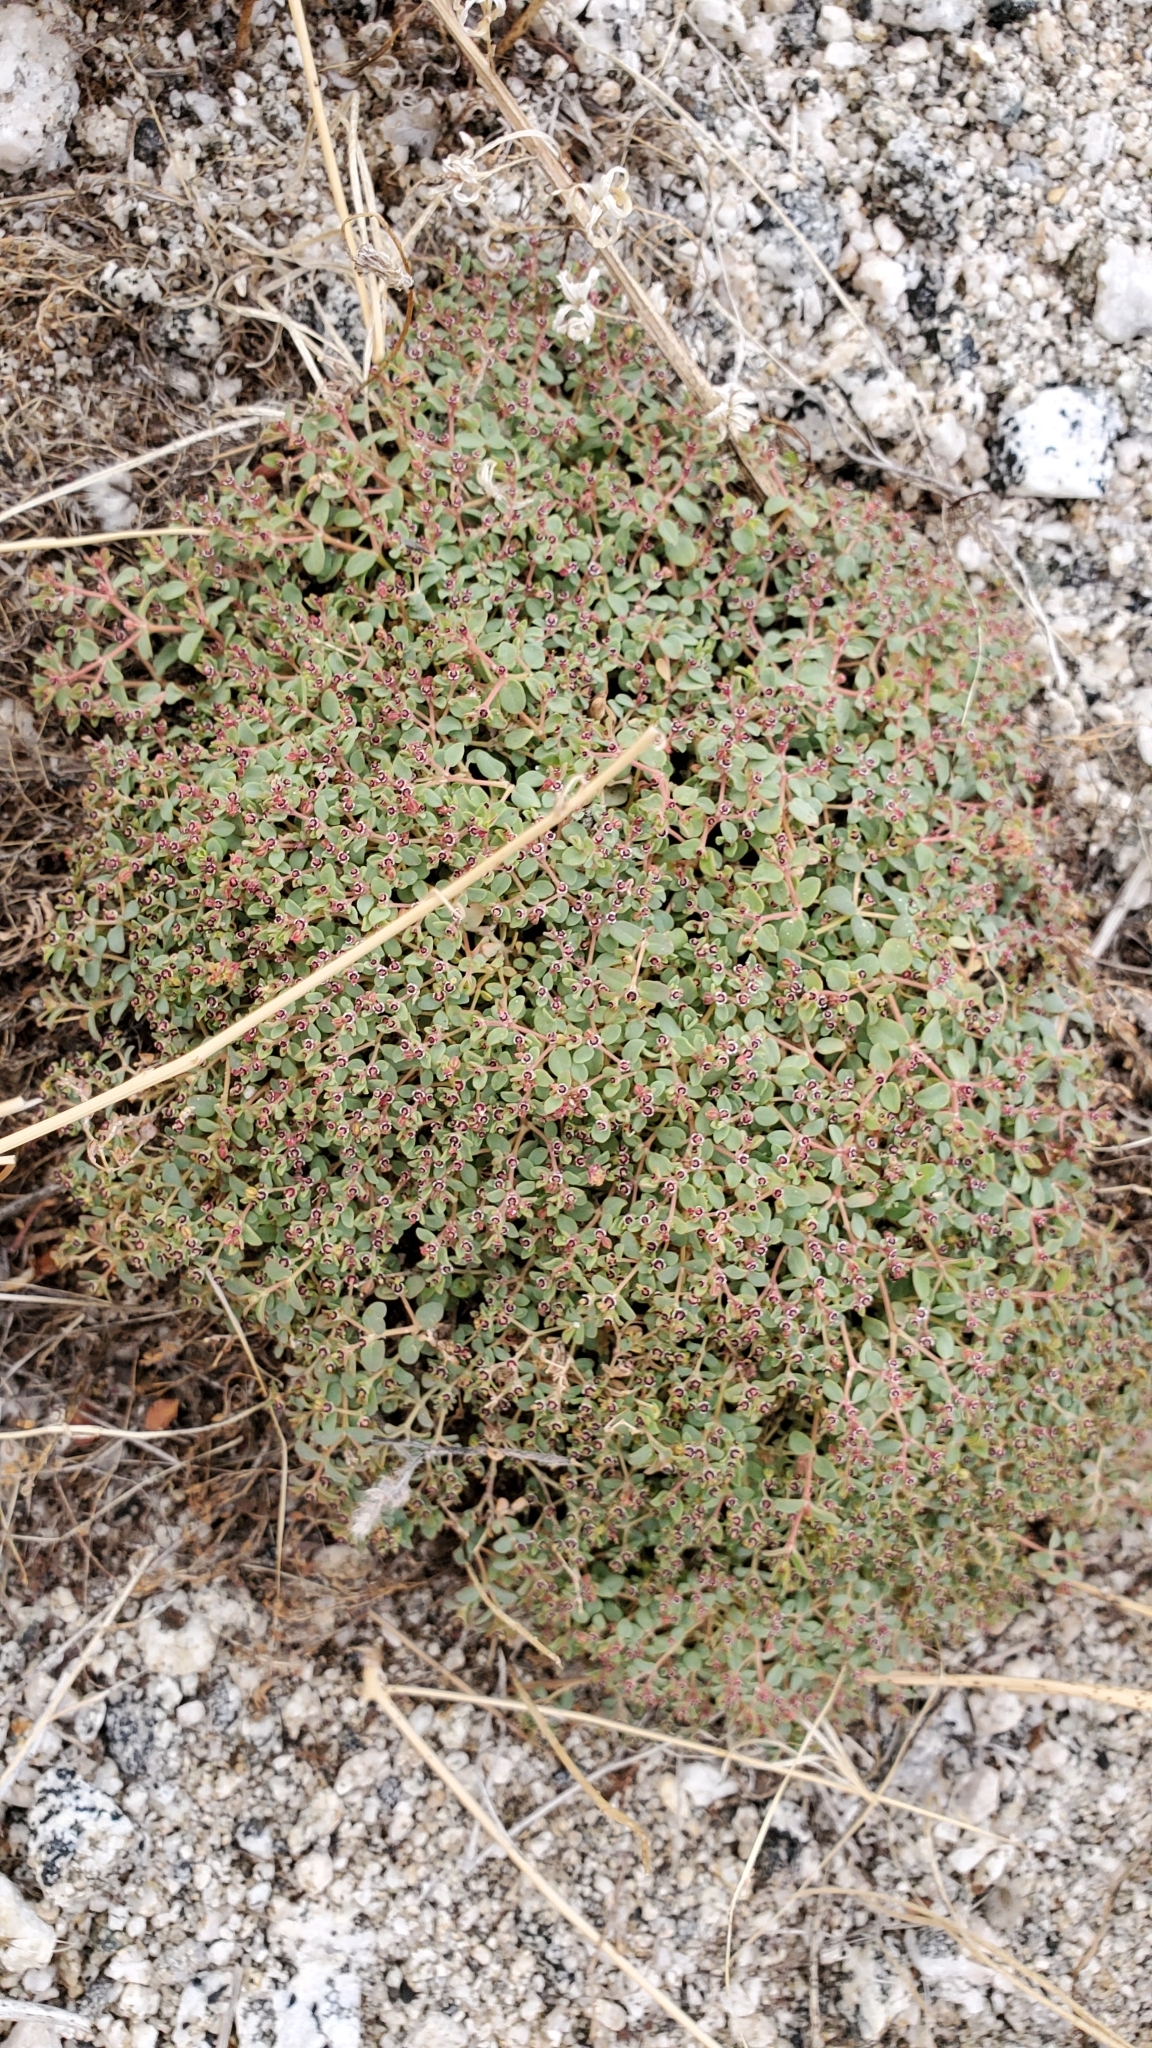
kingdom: Plantae
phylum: Tracheophyta
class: Magnoliopsida
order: Malpighiales
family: Euphorbiaceae
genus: Euphorbia
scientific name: Euphorbia polycarpa
